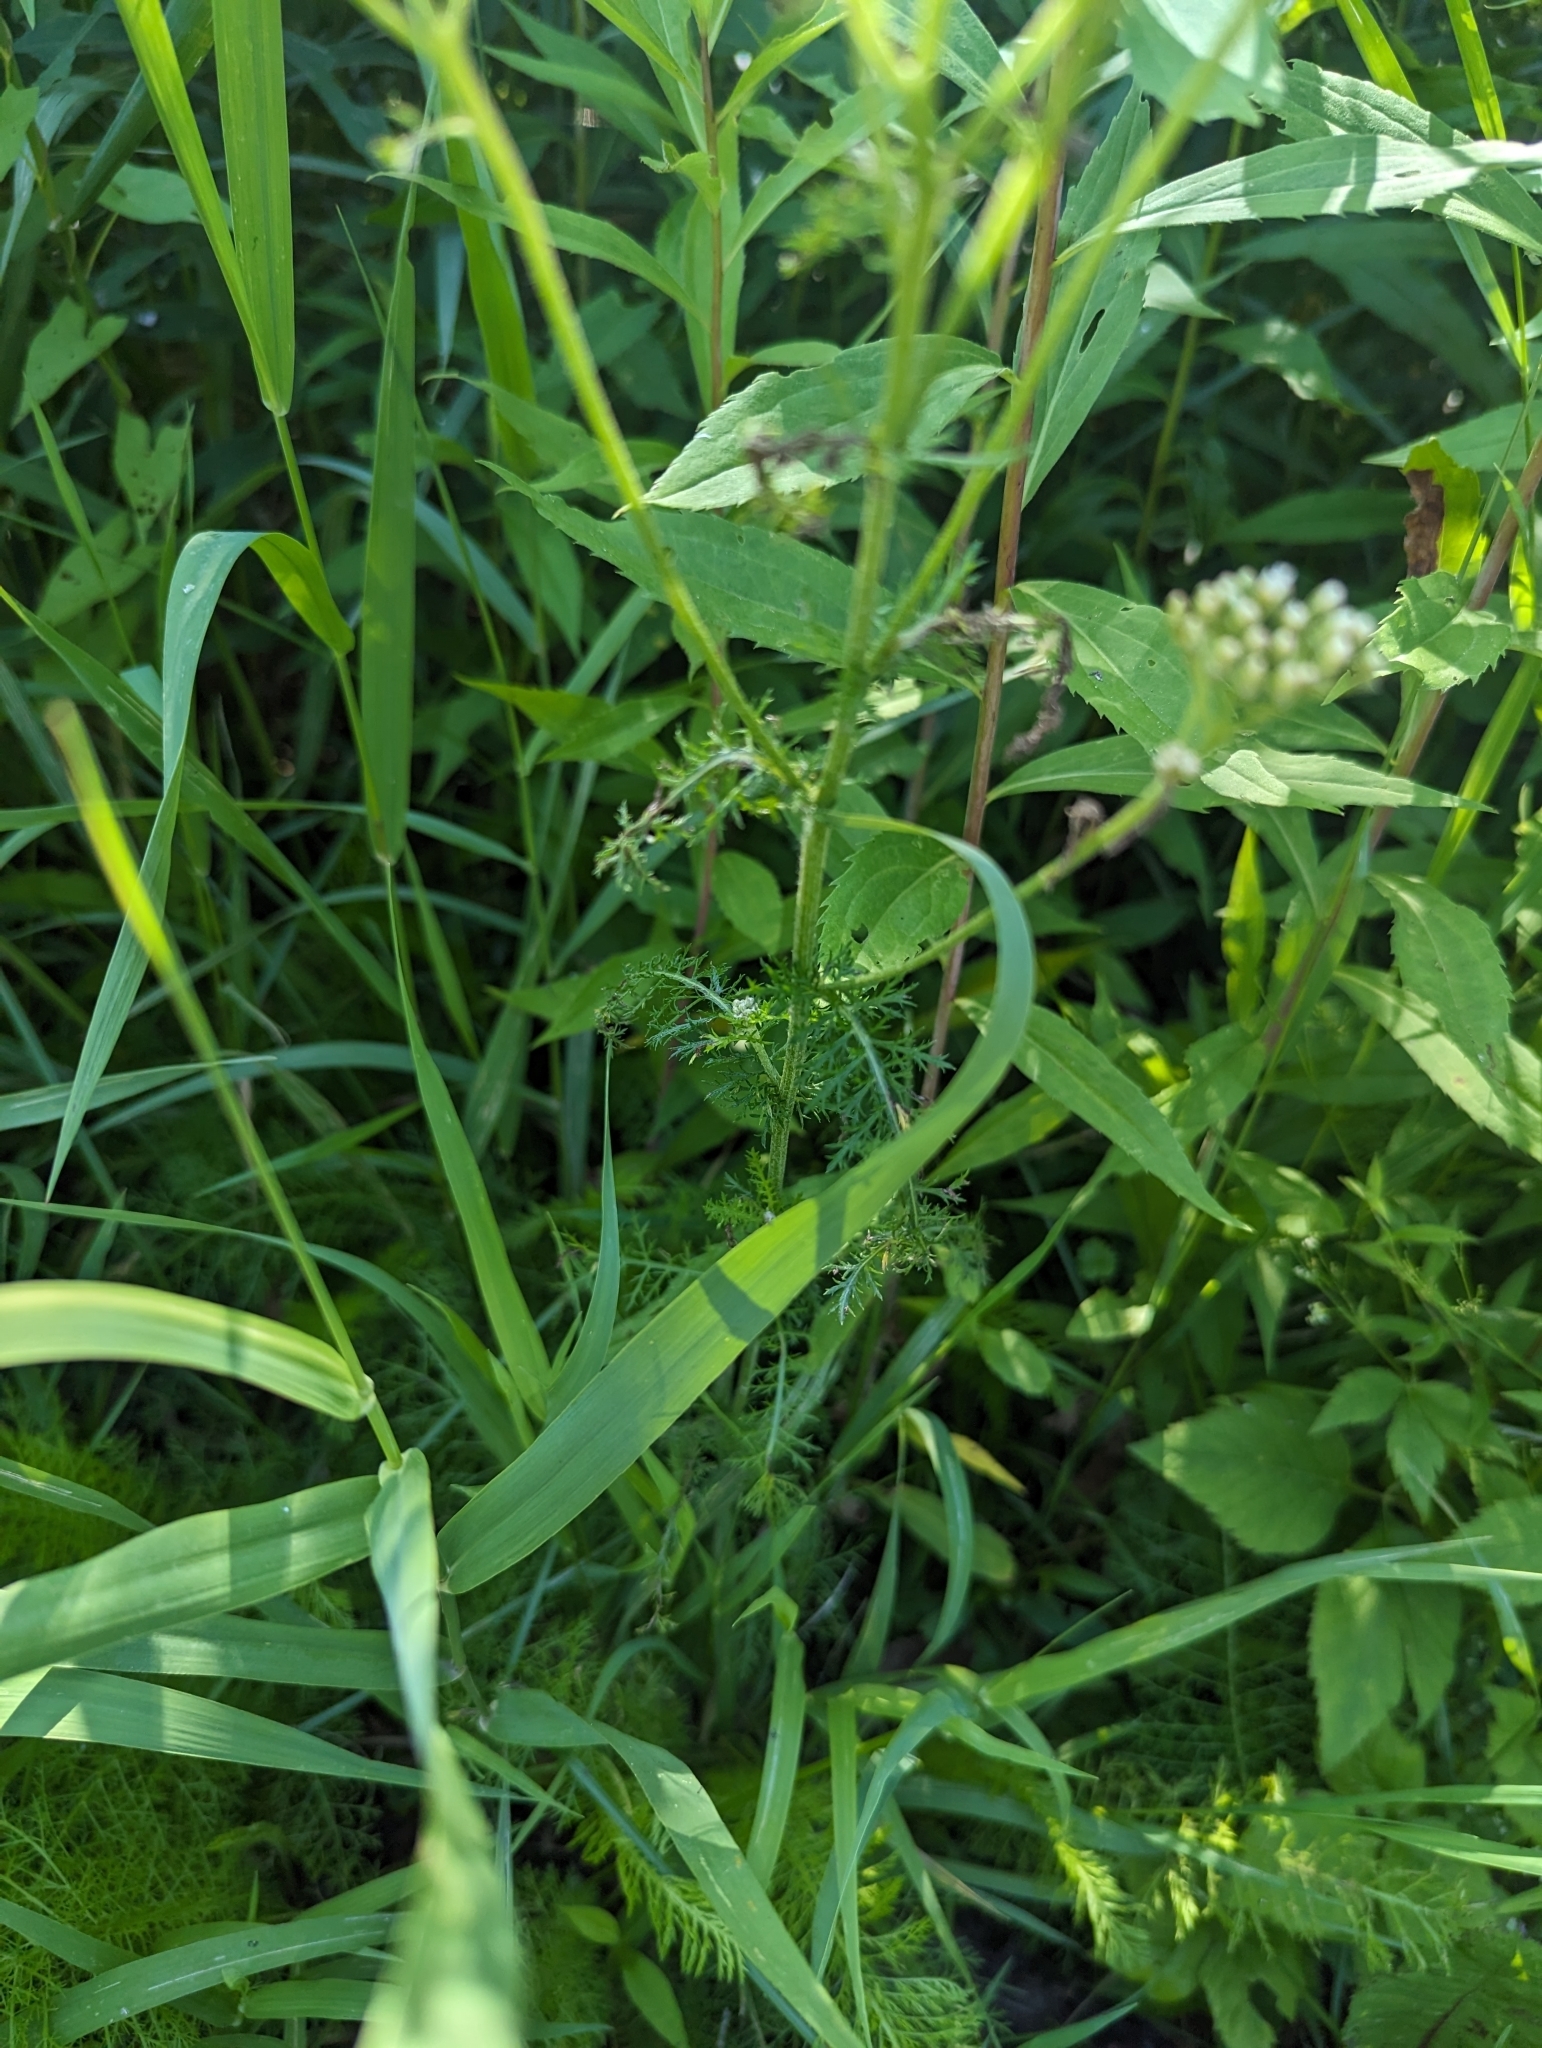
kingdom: Plantae
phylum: Tracheophyta
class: Magnoliopsida
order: Asterales
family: Asteraceae
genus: Achillea
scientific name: Achillea millefolium
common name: Yarrow
